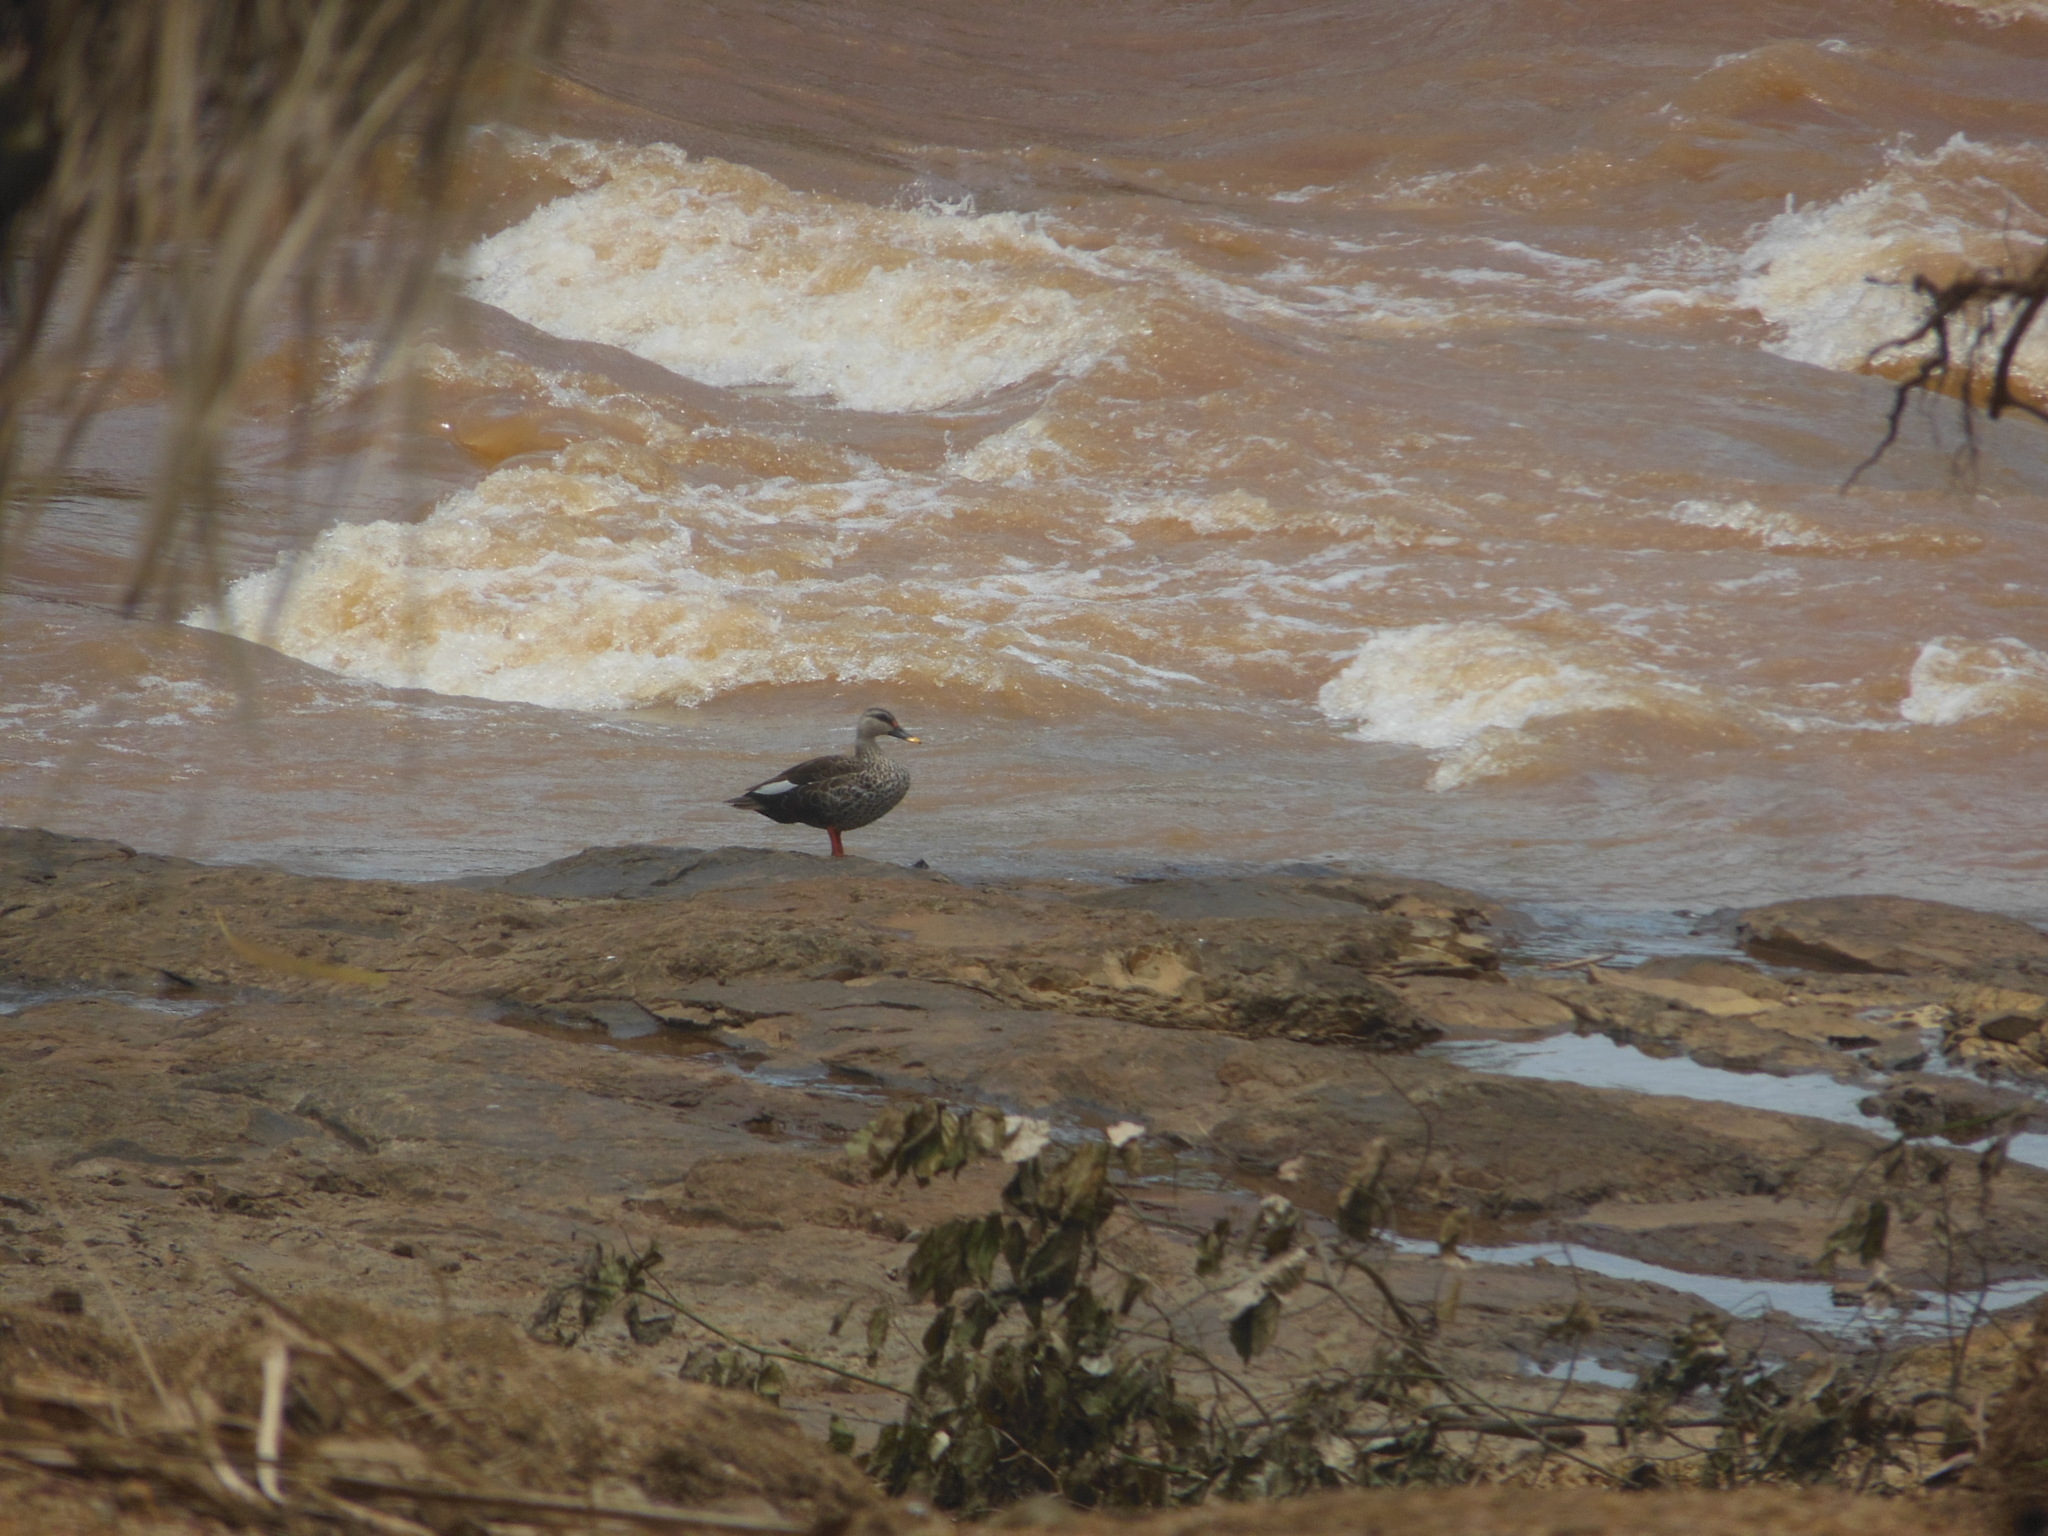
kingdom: Animalia
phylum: Chordata
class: Aves
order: Anseriformes
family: Anatidae
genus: Anas
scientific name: Anas poecilorhyncha
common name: Indian spot-billed duck
